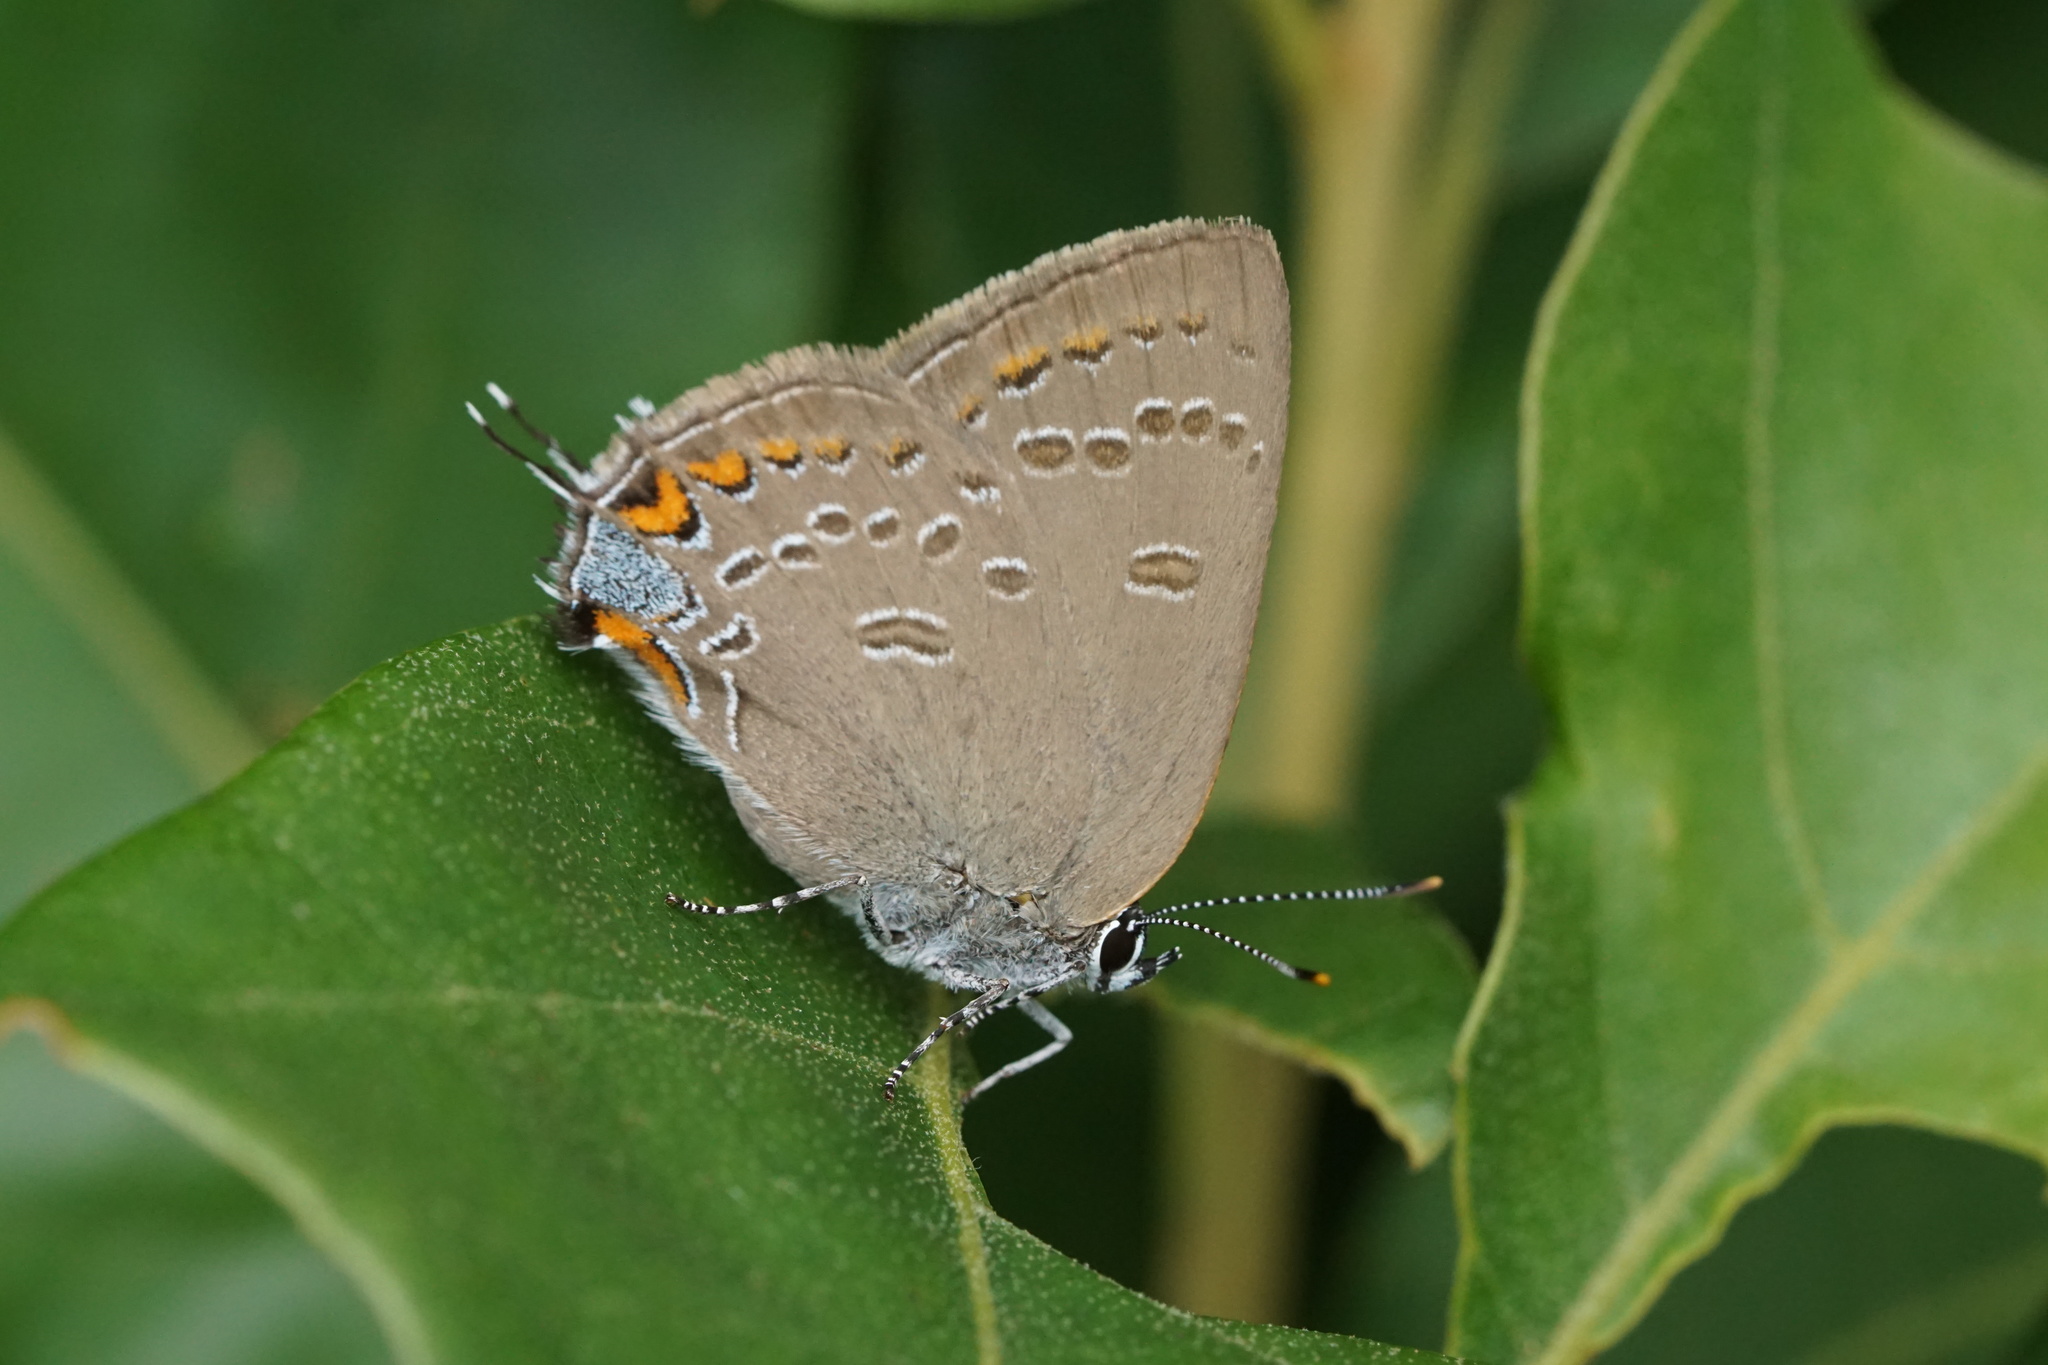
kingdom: Animalia
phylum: Arthropoda
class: Insecta
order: Lepidoptera
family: Lycaenidae
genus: Satyrium
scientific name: Satyrium edwardsii
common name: Edwards' hairstreak
